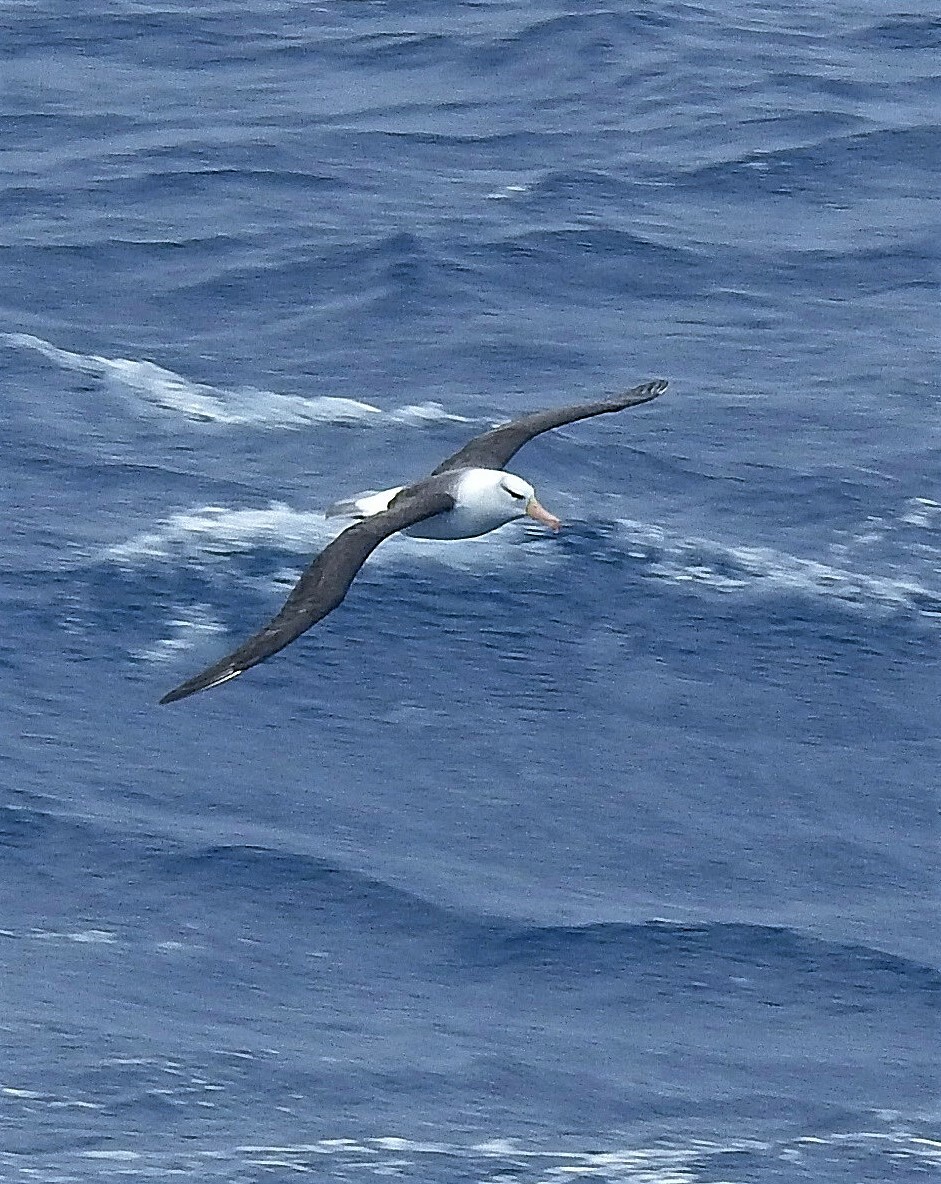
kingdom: Animalia
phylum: Chordata
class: Aves
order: Procellariiformes
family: Diomedeidae
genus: Thalassarche
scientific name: Thalassarche melanophris
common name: Black-browed albatross
